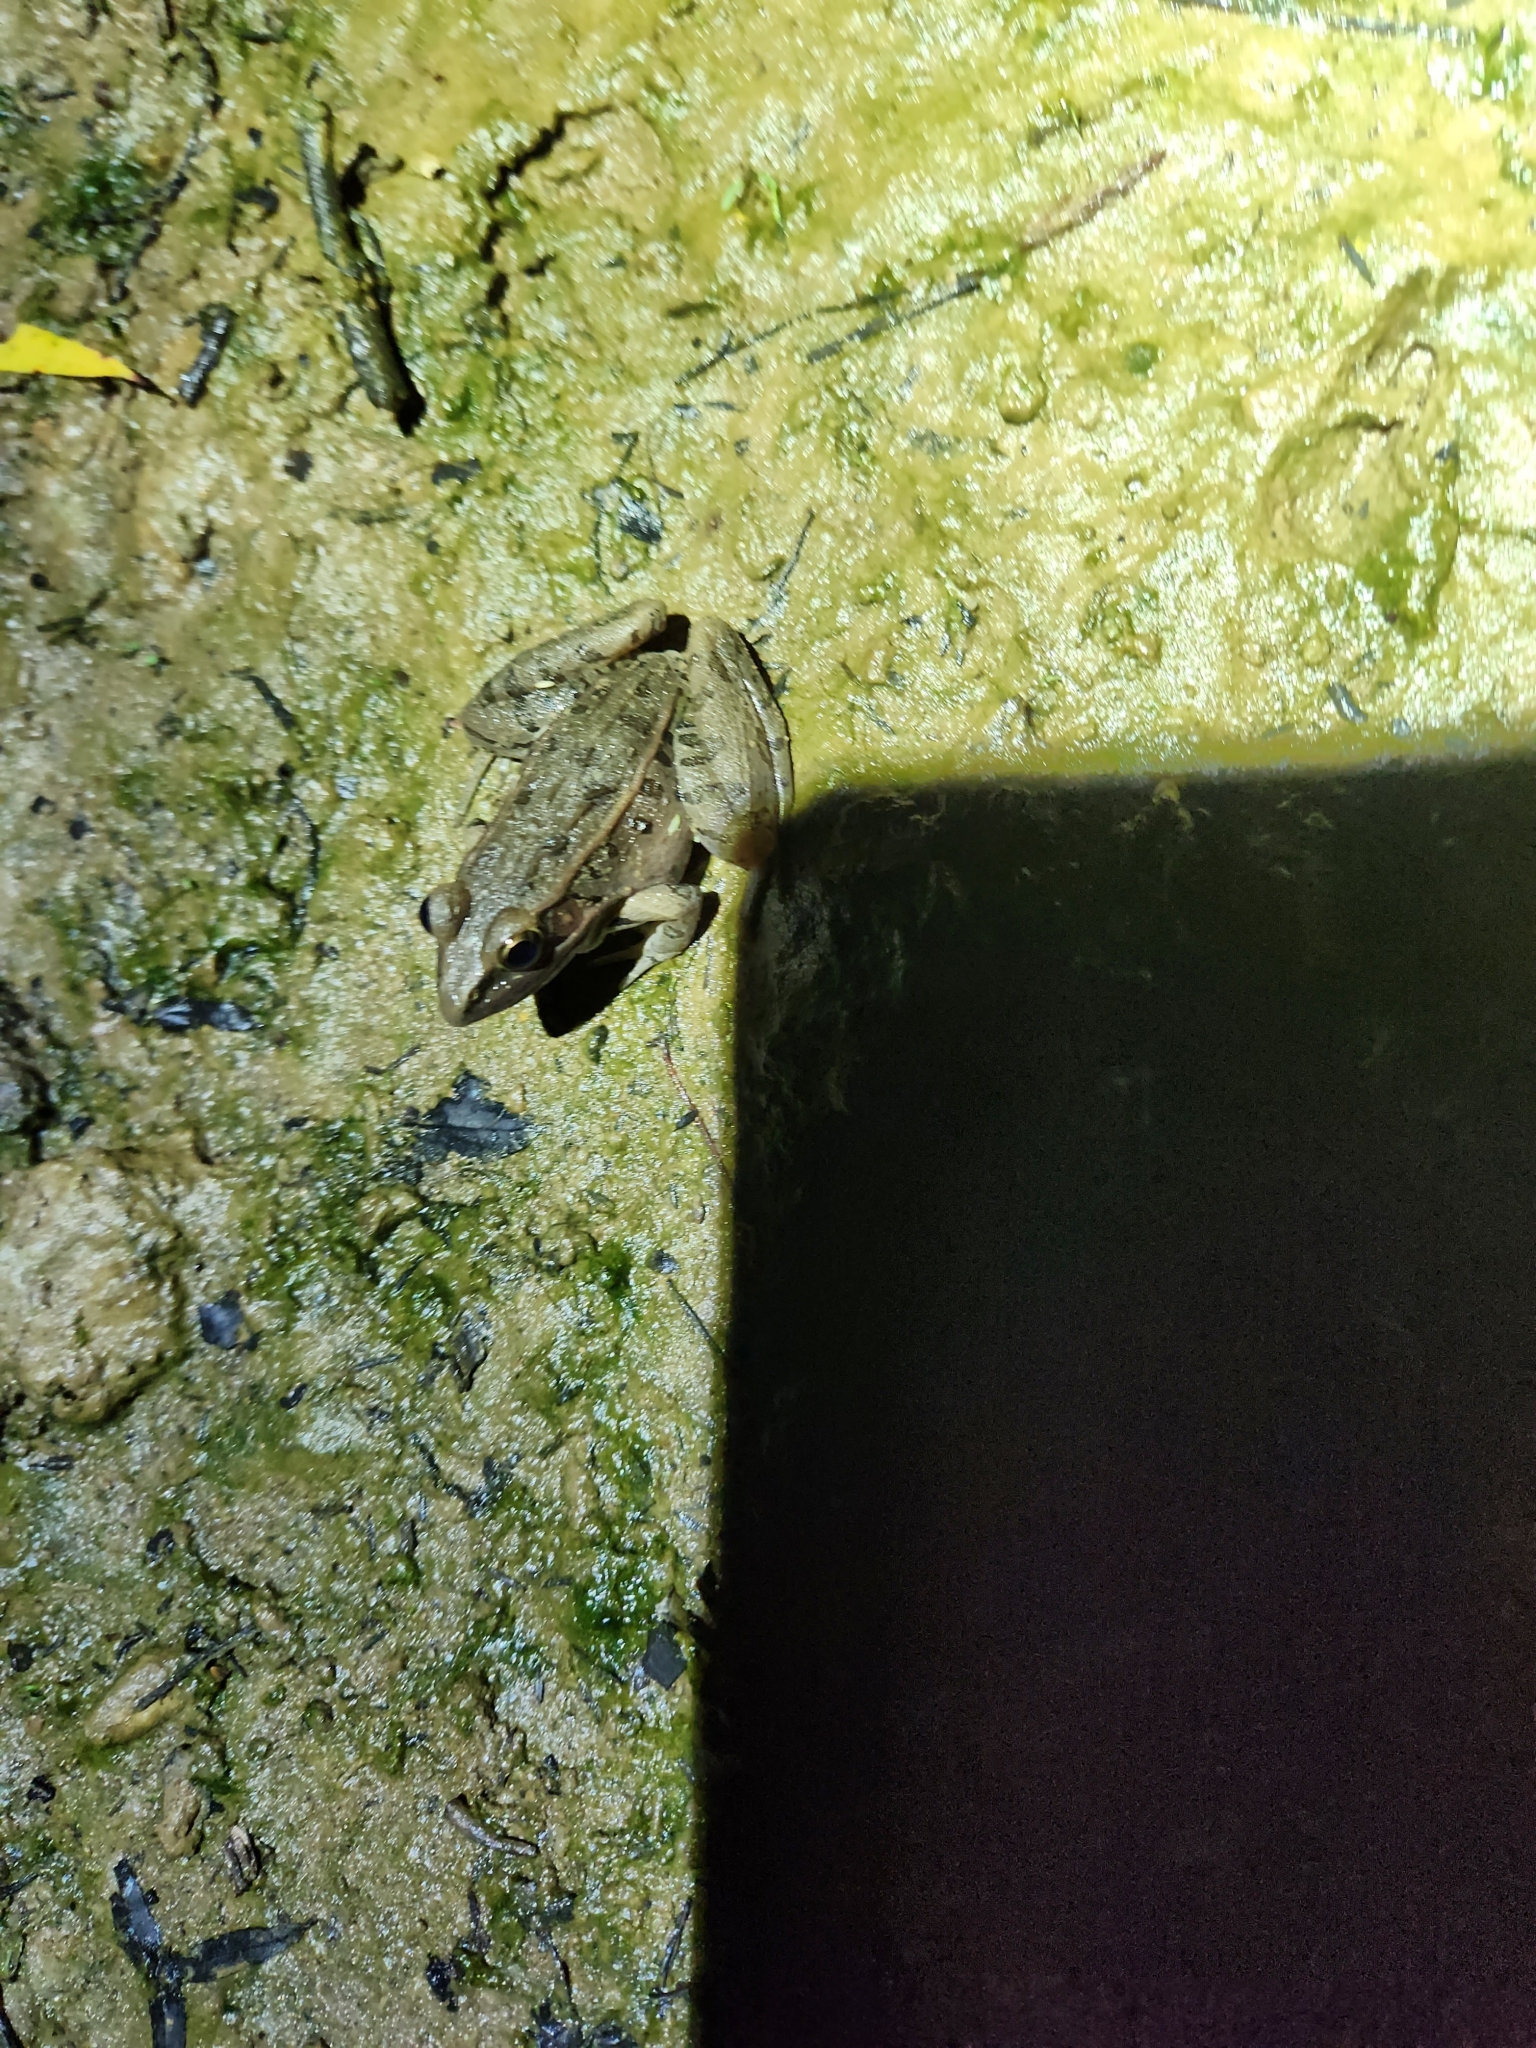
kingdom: Animalia
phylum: Chordata
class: Amphibia
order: Anura
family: Ranidae
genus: Lithobates
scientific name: Lithobates sphenocephalus
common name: Southern leopard frog
